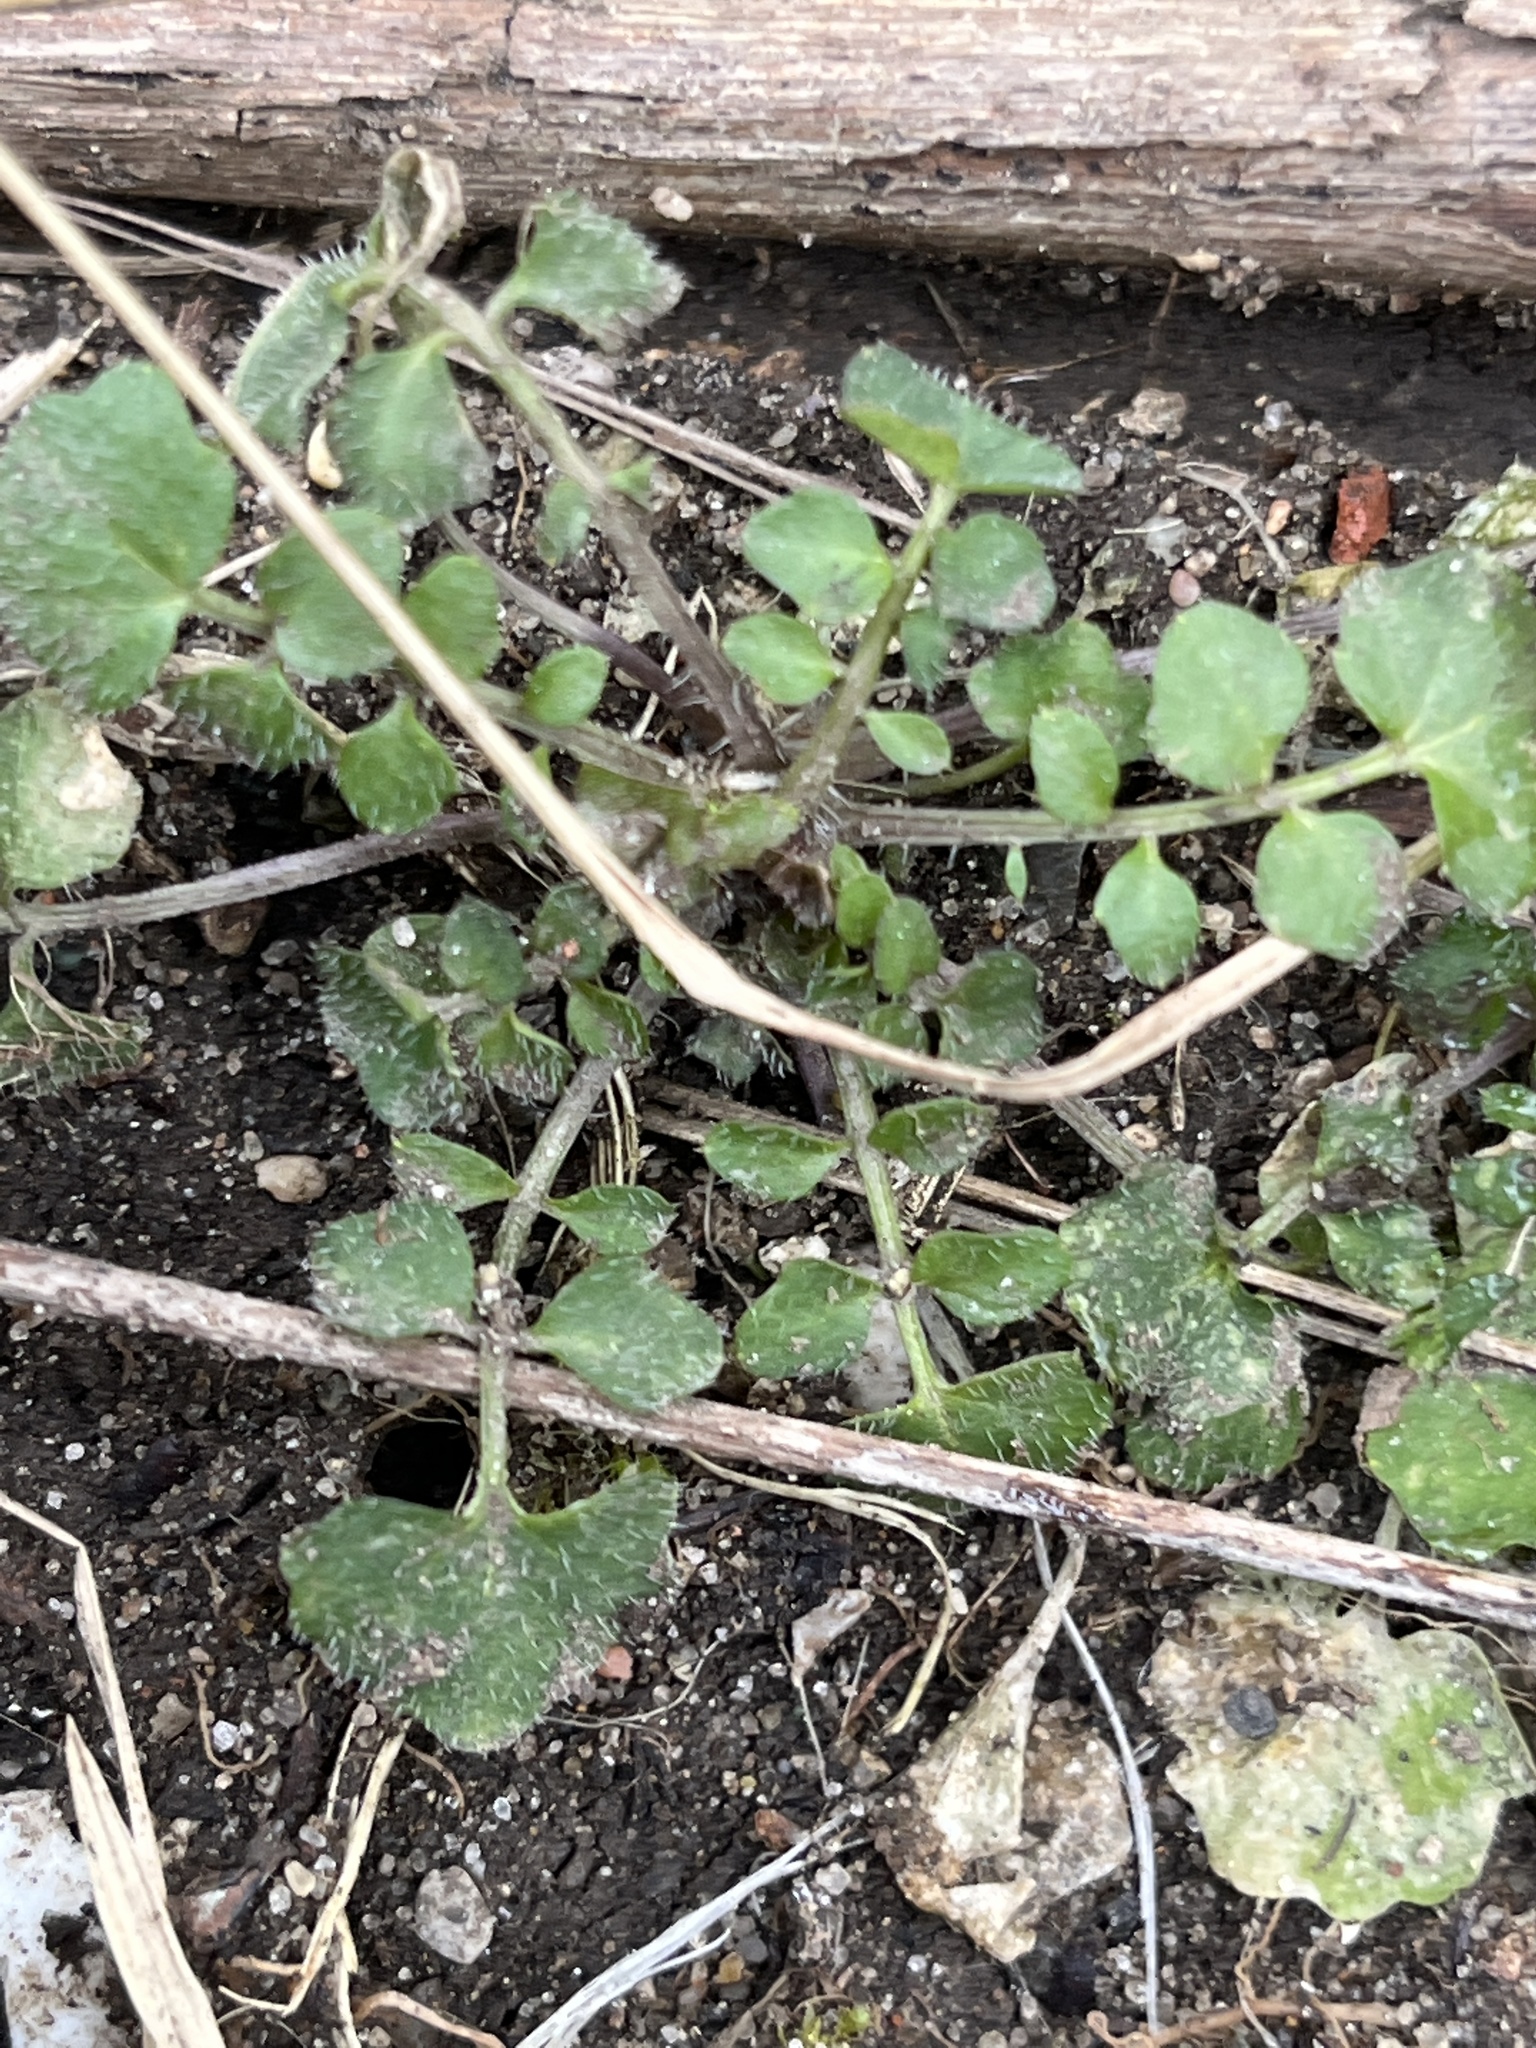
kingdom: Plantae
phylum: Tracheophyta
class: Magnoliopsida
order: Brassicales
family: Brassicaceae
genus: Cardamine
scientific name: Cardamine hirsuta
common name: Hairy bittercress
